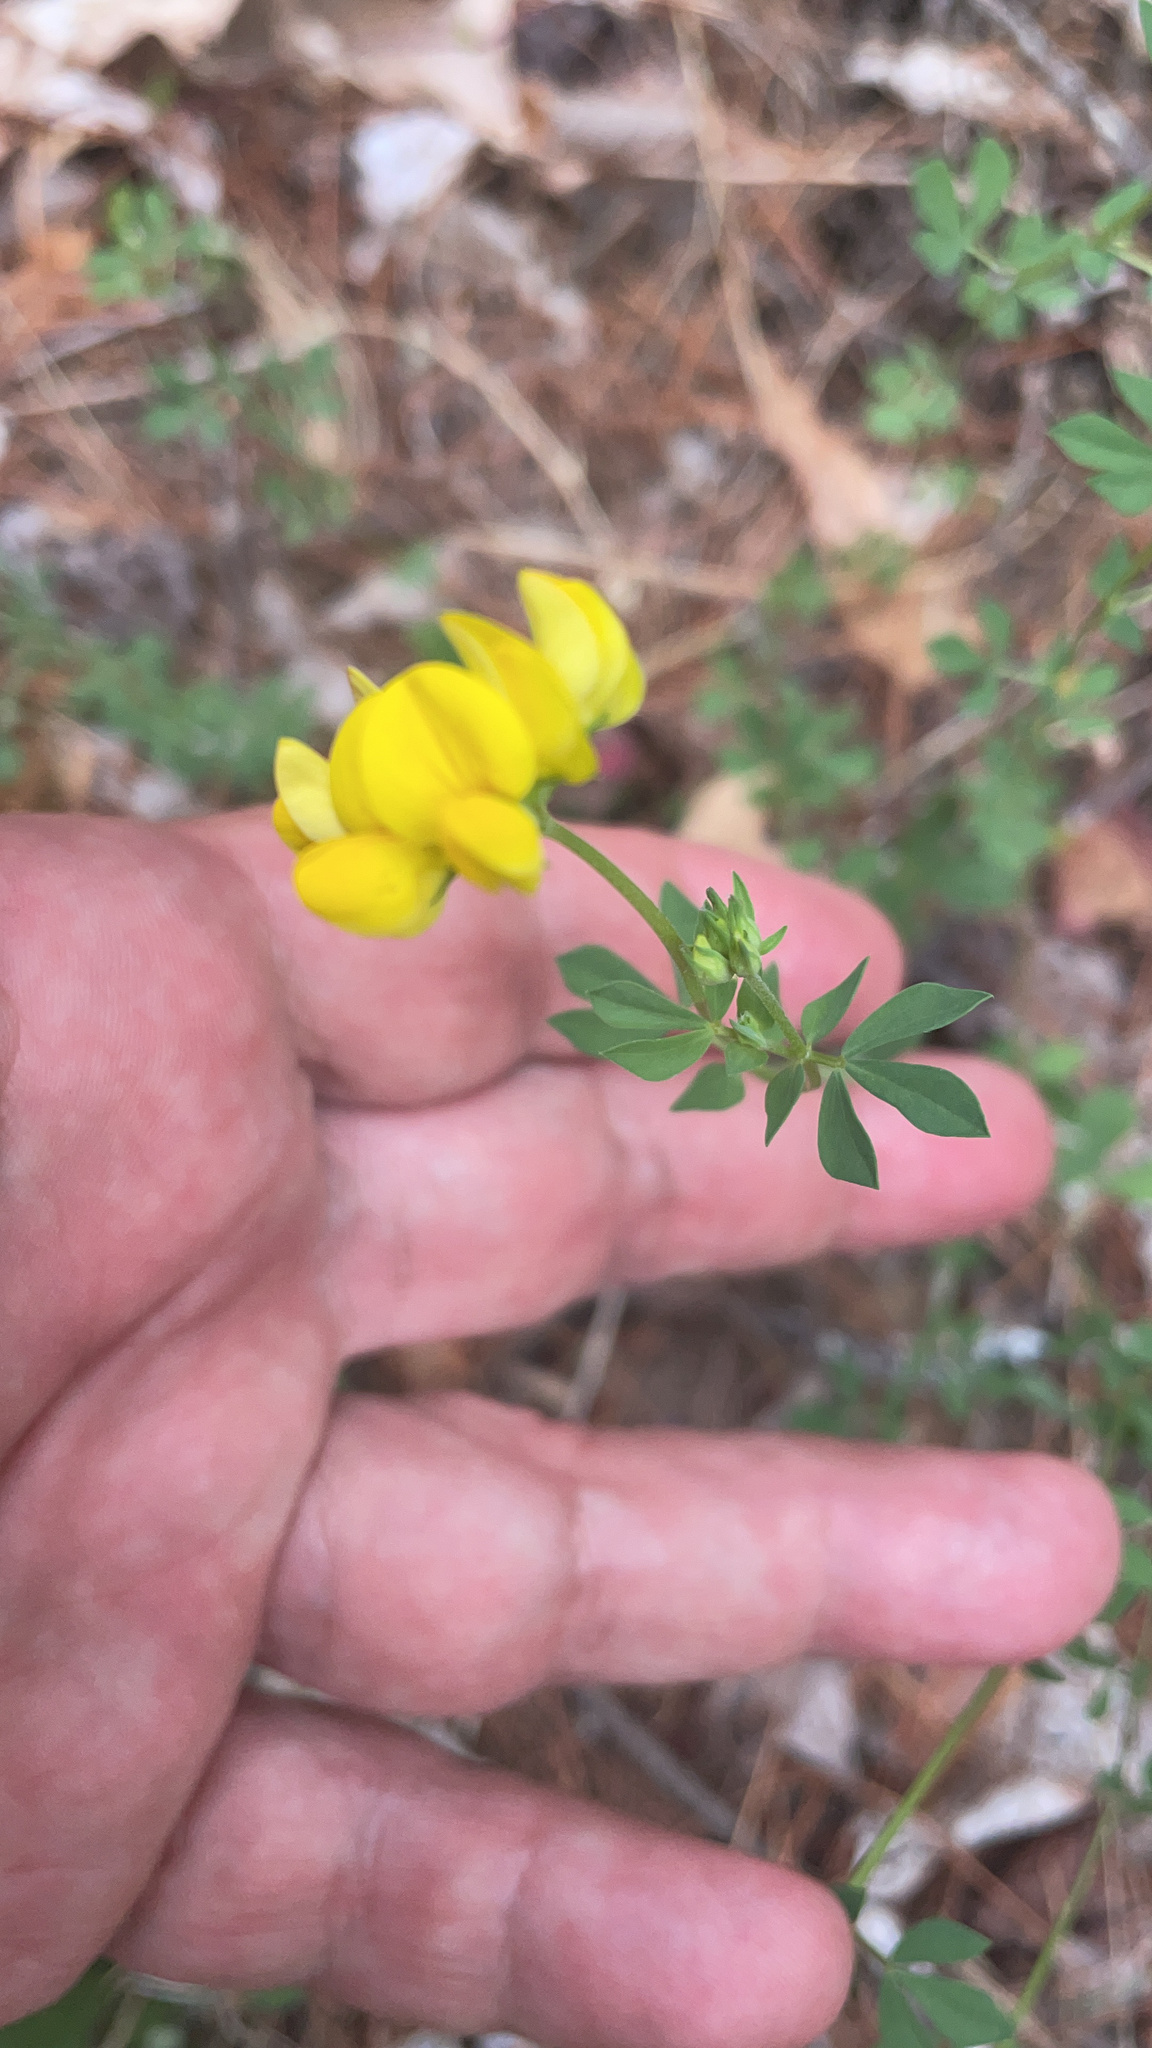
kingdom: Plantae
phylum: Tracheophyta
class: Magnoliopsida
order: Fabales
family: Fabaceae
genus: Lotus
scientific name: Lotus corniculatus
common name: Common bird's-foot-trefoil
